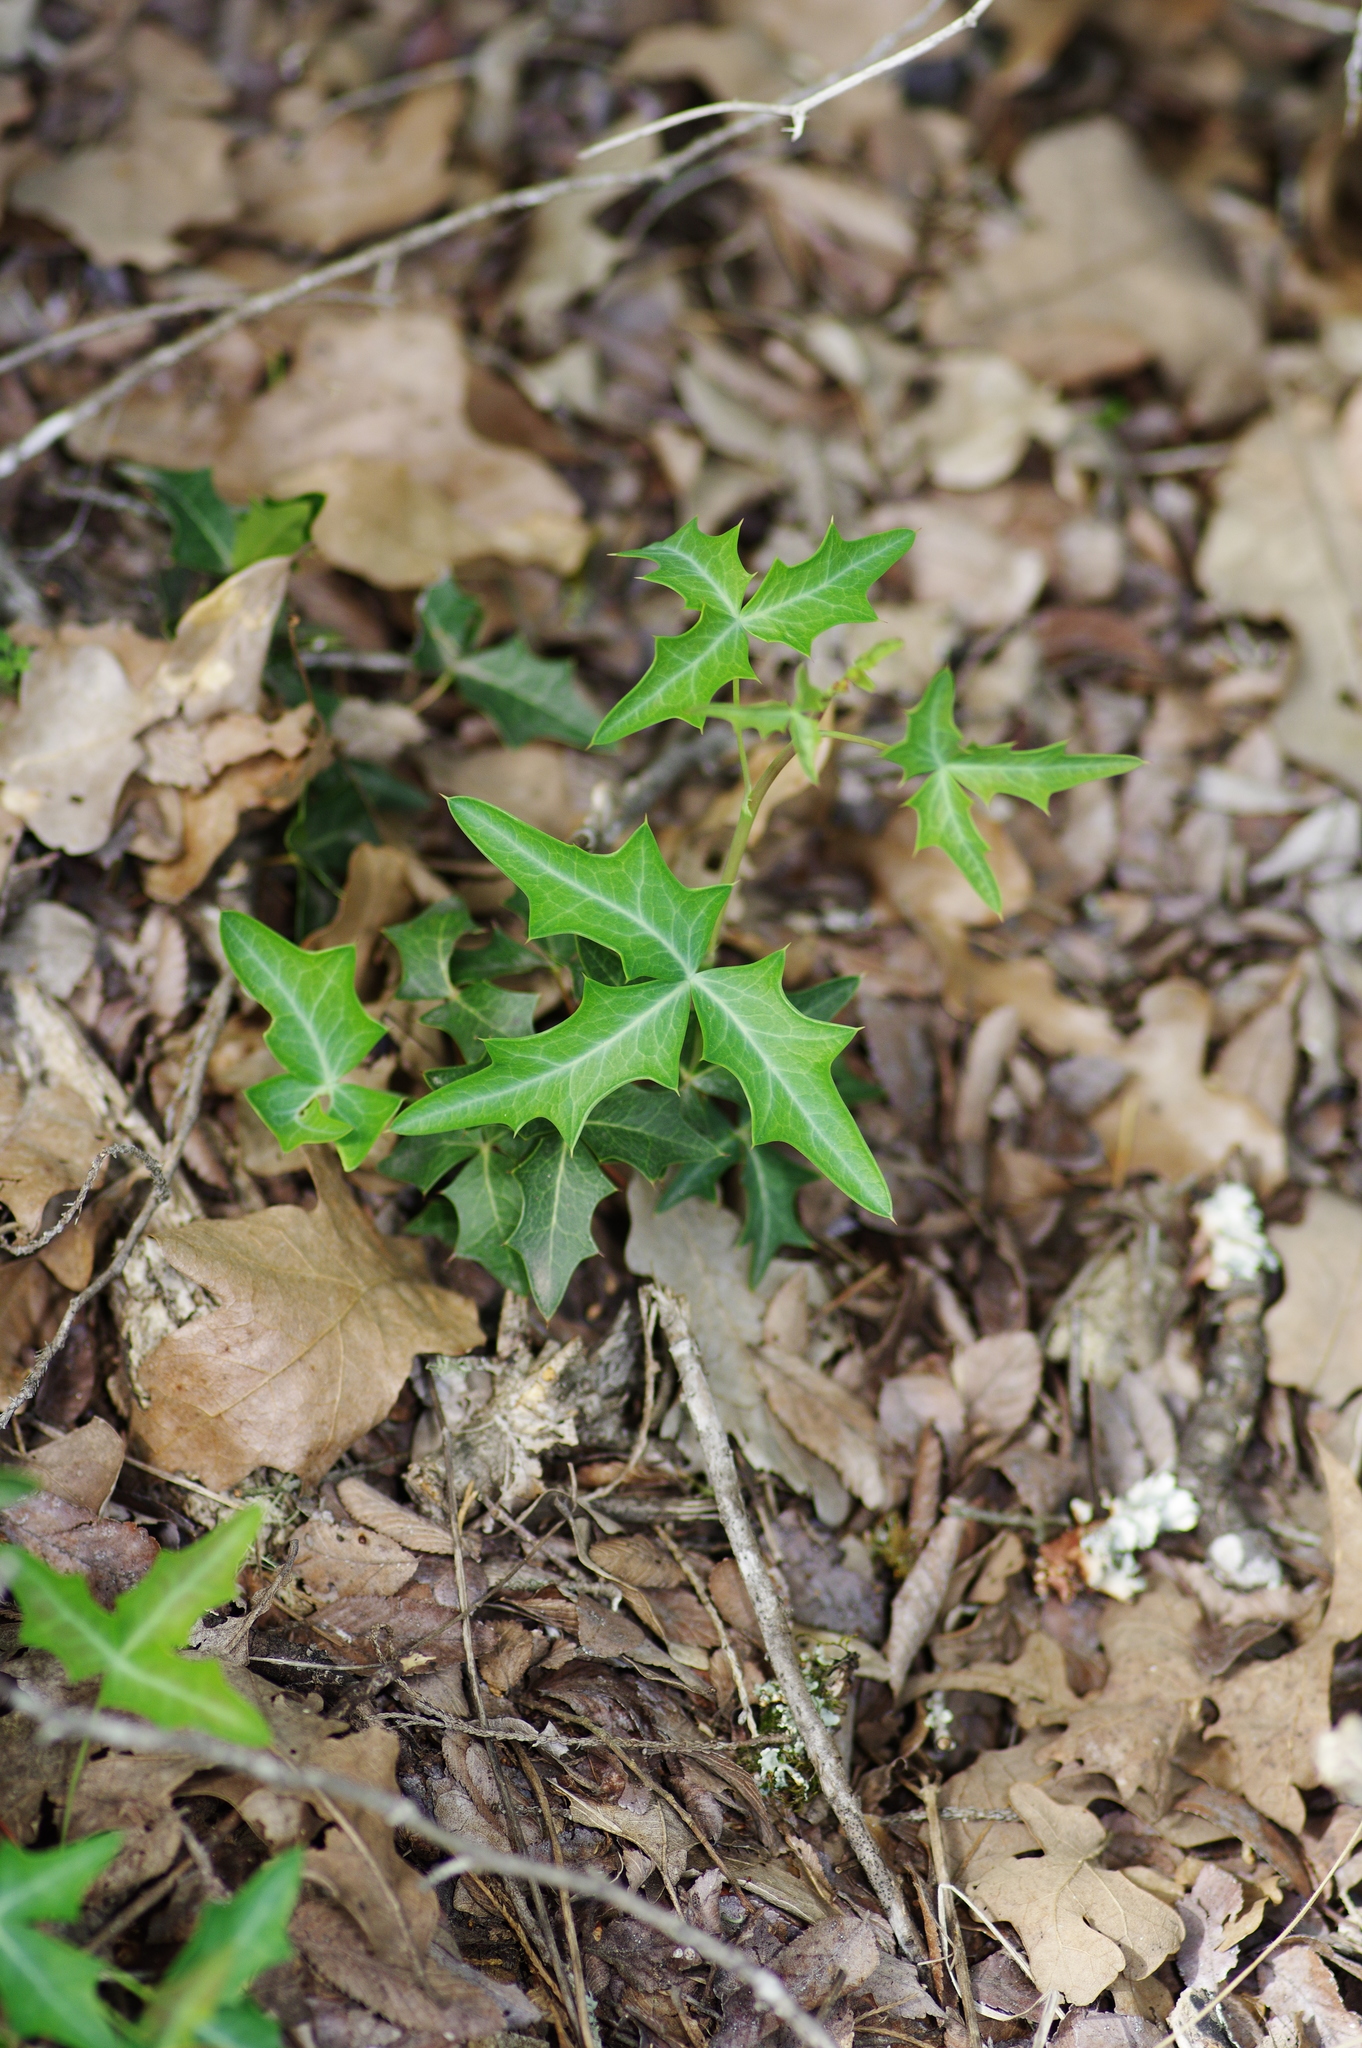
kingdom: Plantae
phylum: Tracheophyta
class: Magnoliopsida
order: Ranunculales
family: Berberidaceae
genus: Alloberberis
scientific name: Alloberberis trifoliolata
